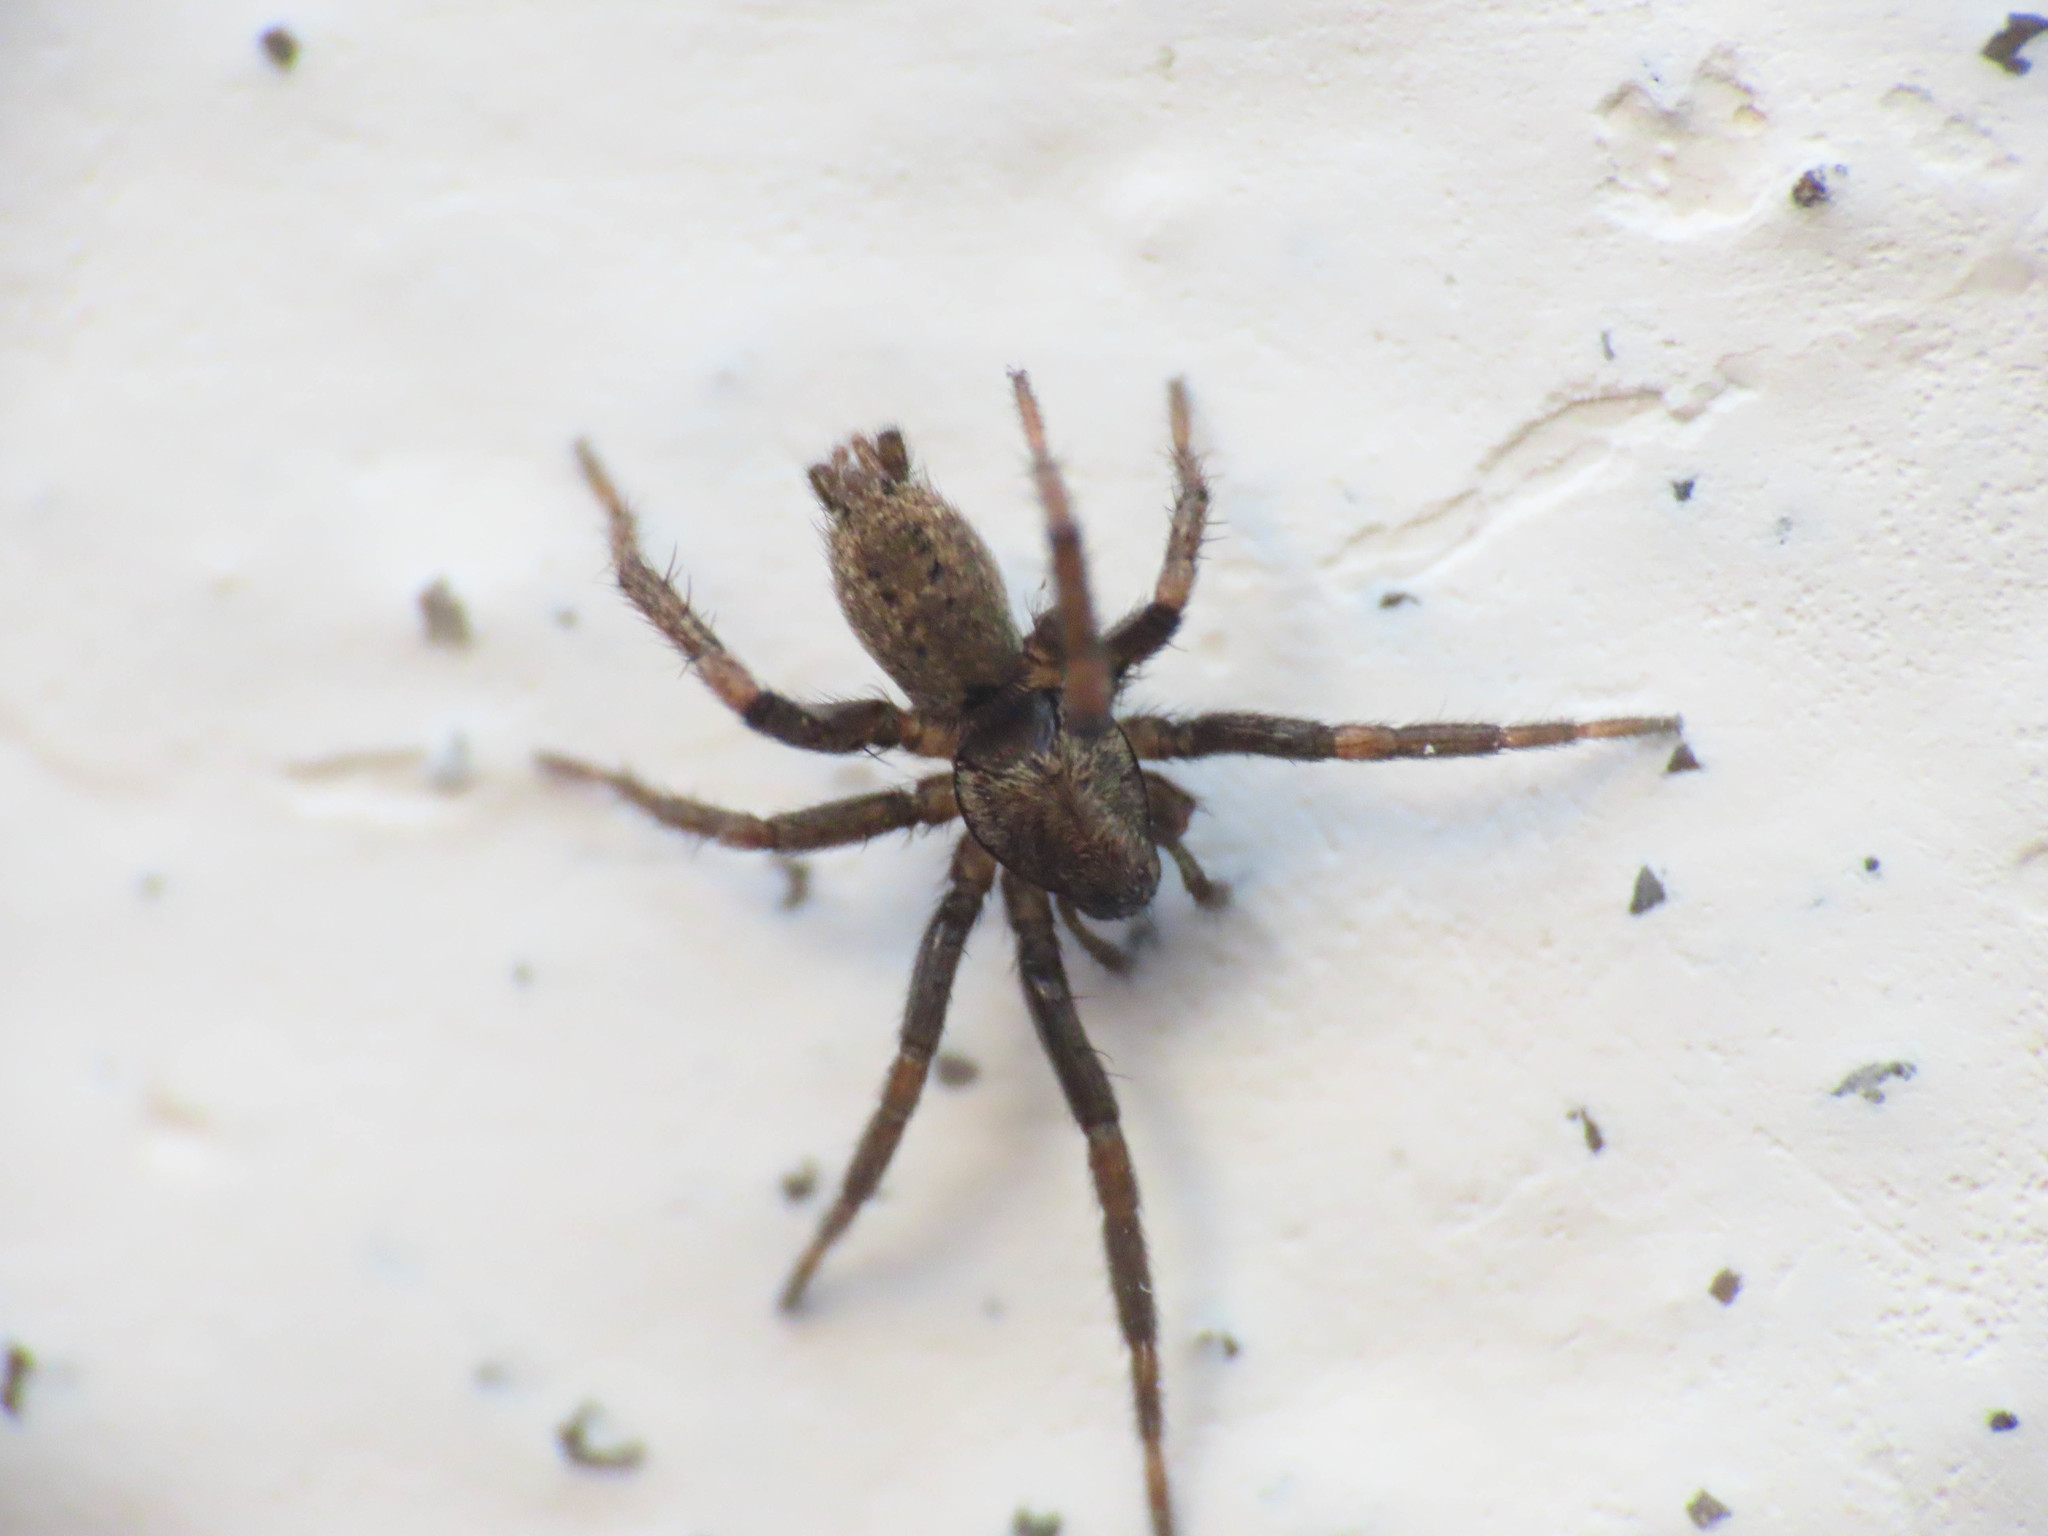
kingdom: Animalia
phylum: Arthropoda
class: Arachnida
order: Araneae
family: Gnaphosidae
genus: Nomisia
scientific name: Nomisia exornata
